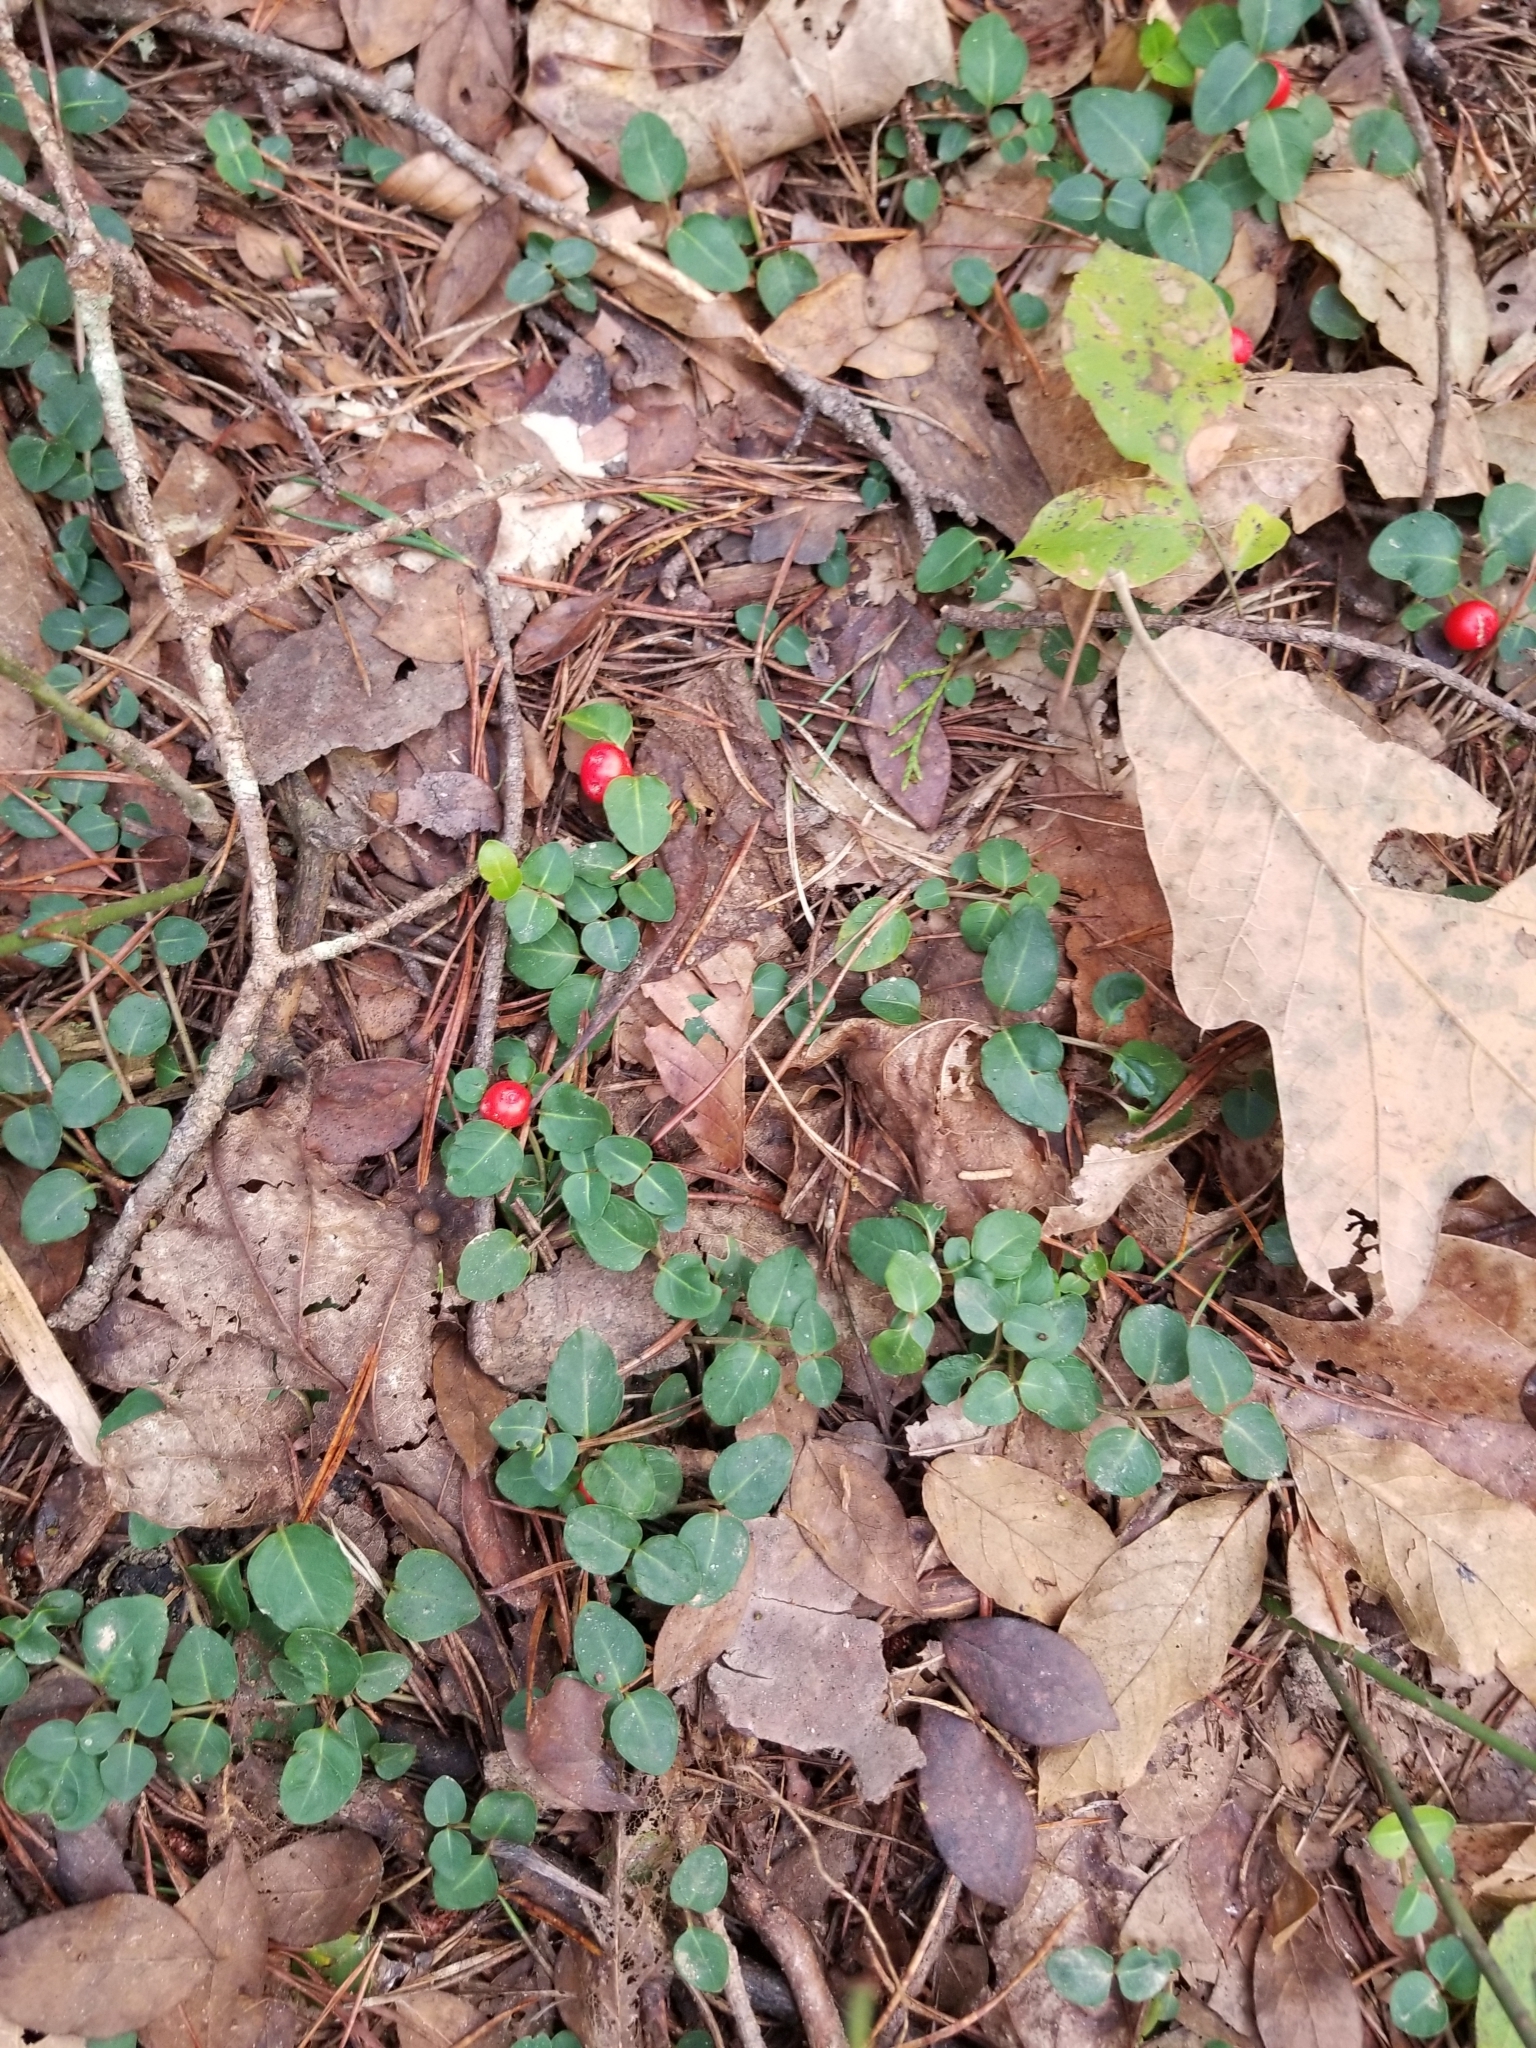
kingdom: Plantae
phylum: Tracheophyta
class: Magnoliopsida
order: Gentianales
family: Rubiaceae
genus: Mitchella
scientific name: Mitchella repens
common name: Partridge-berry
